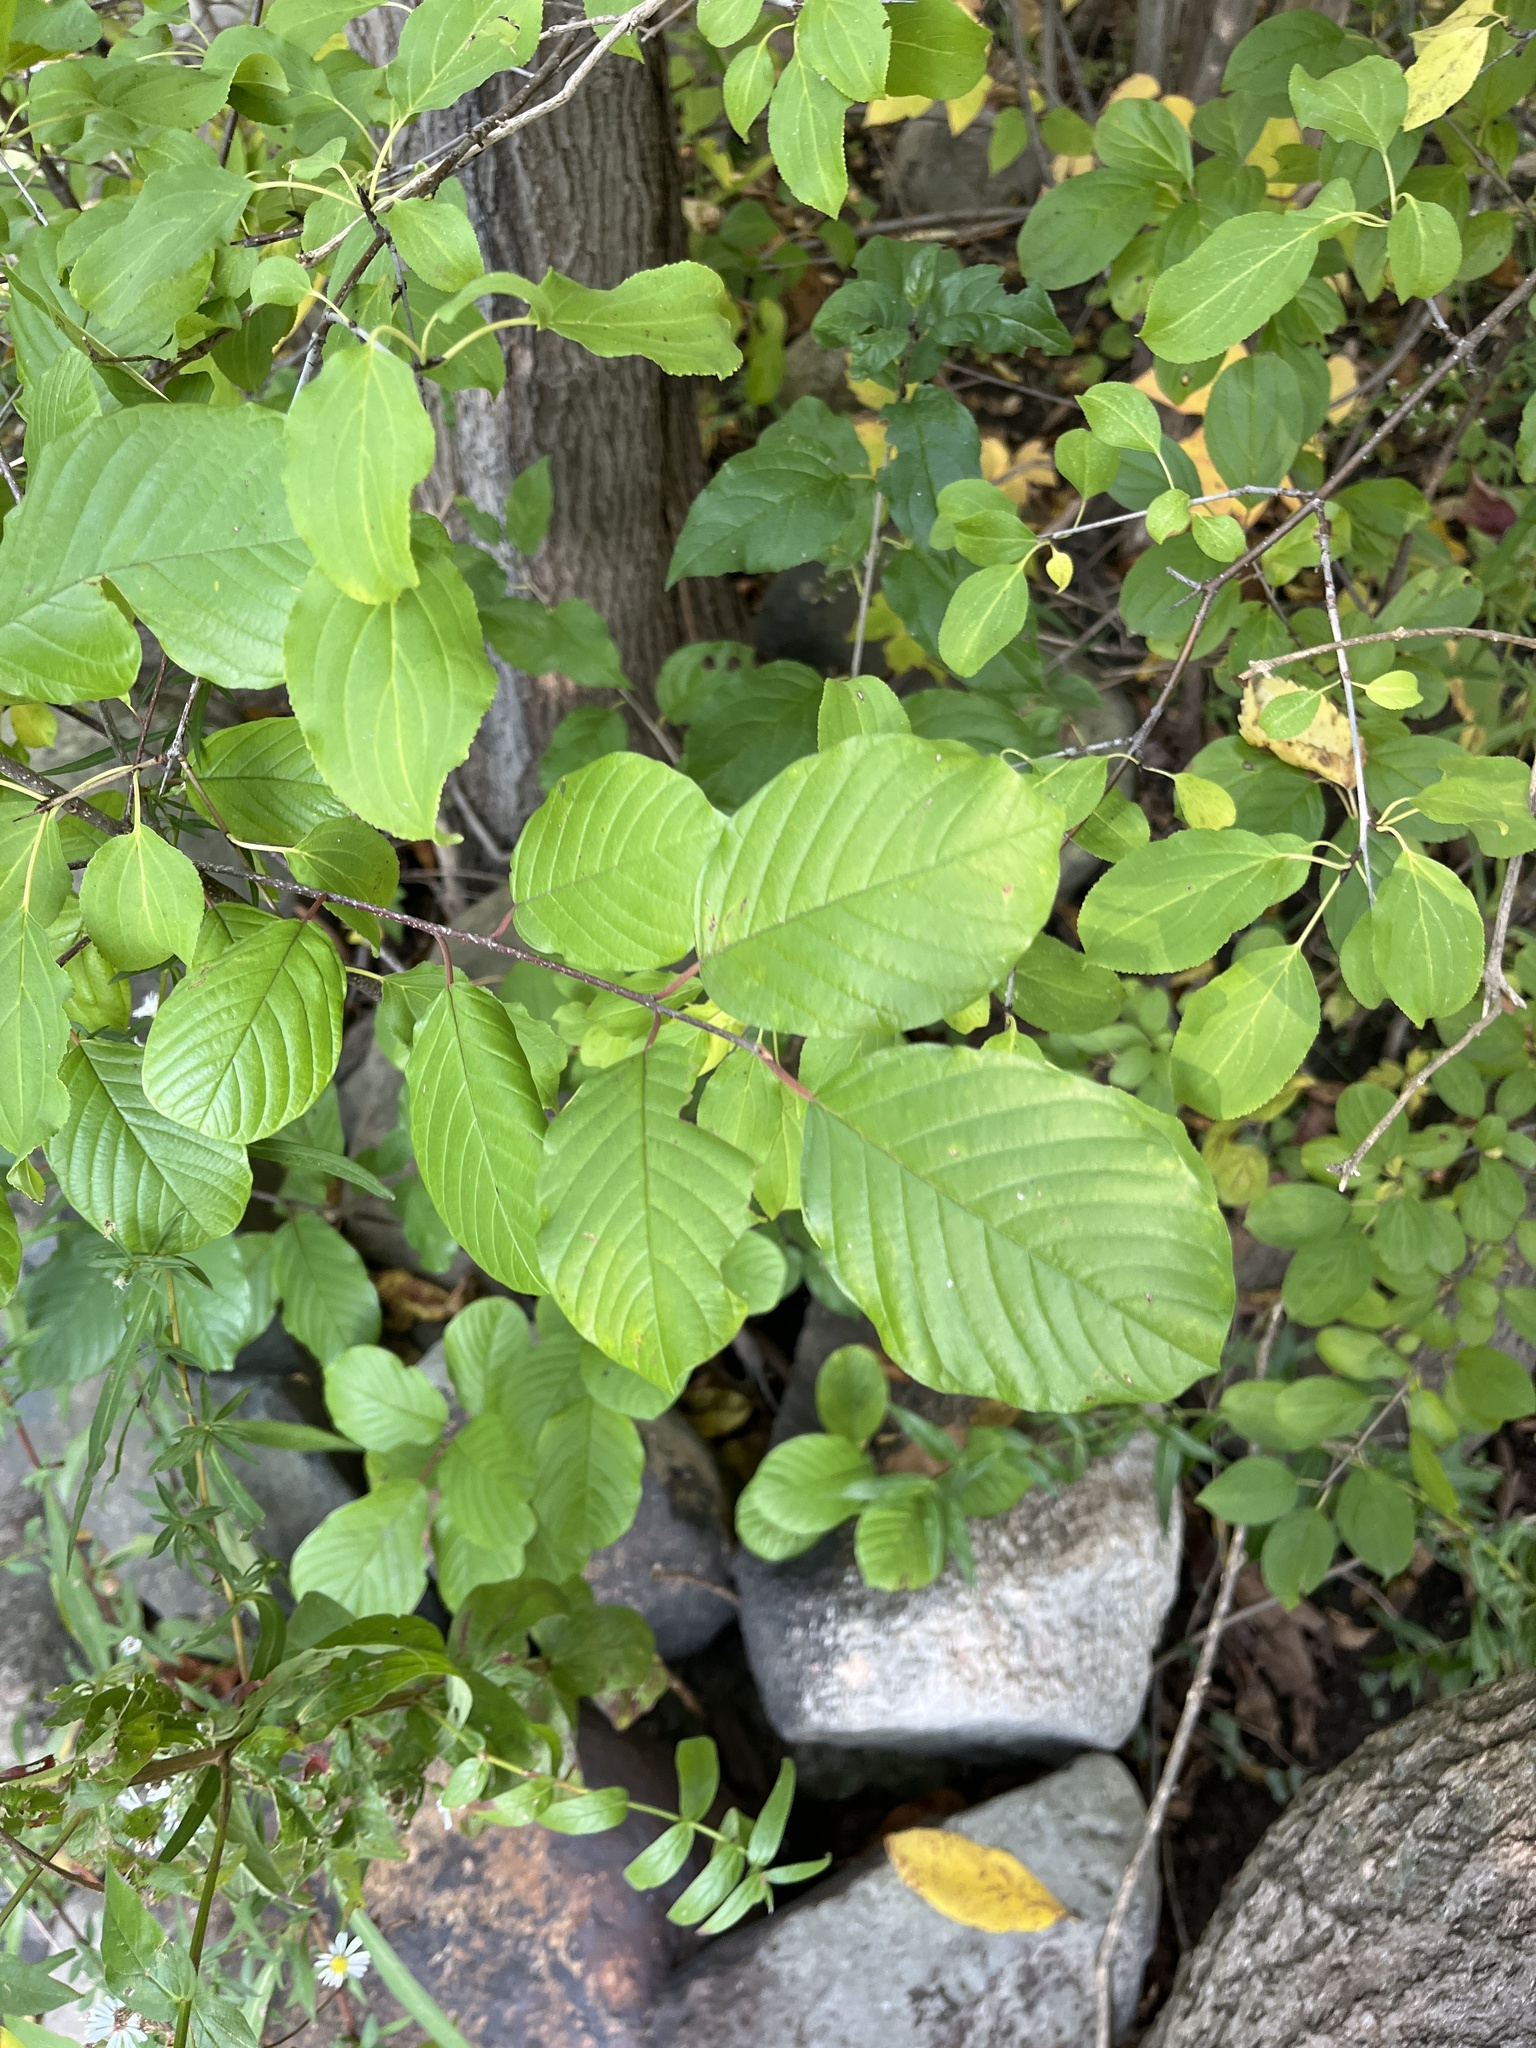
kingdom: Plantae
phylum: Tracheophyta
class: Magnoliopsida
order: Rosales
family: Rhamnaceae
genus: Frangula
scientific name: Frangula alnus
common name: Alder buckthorn
